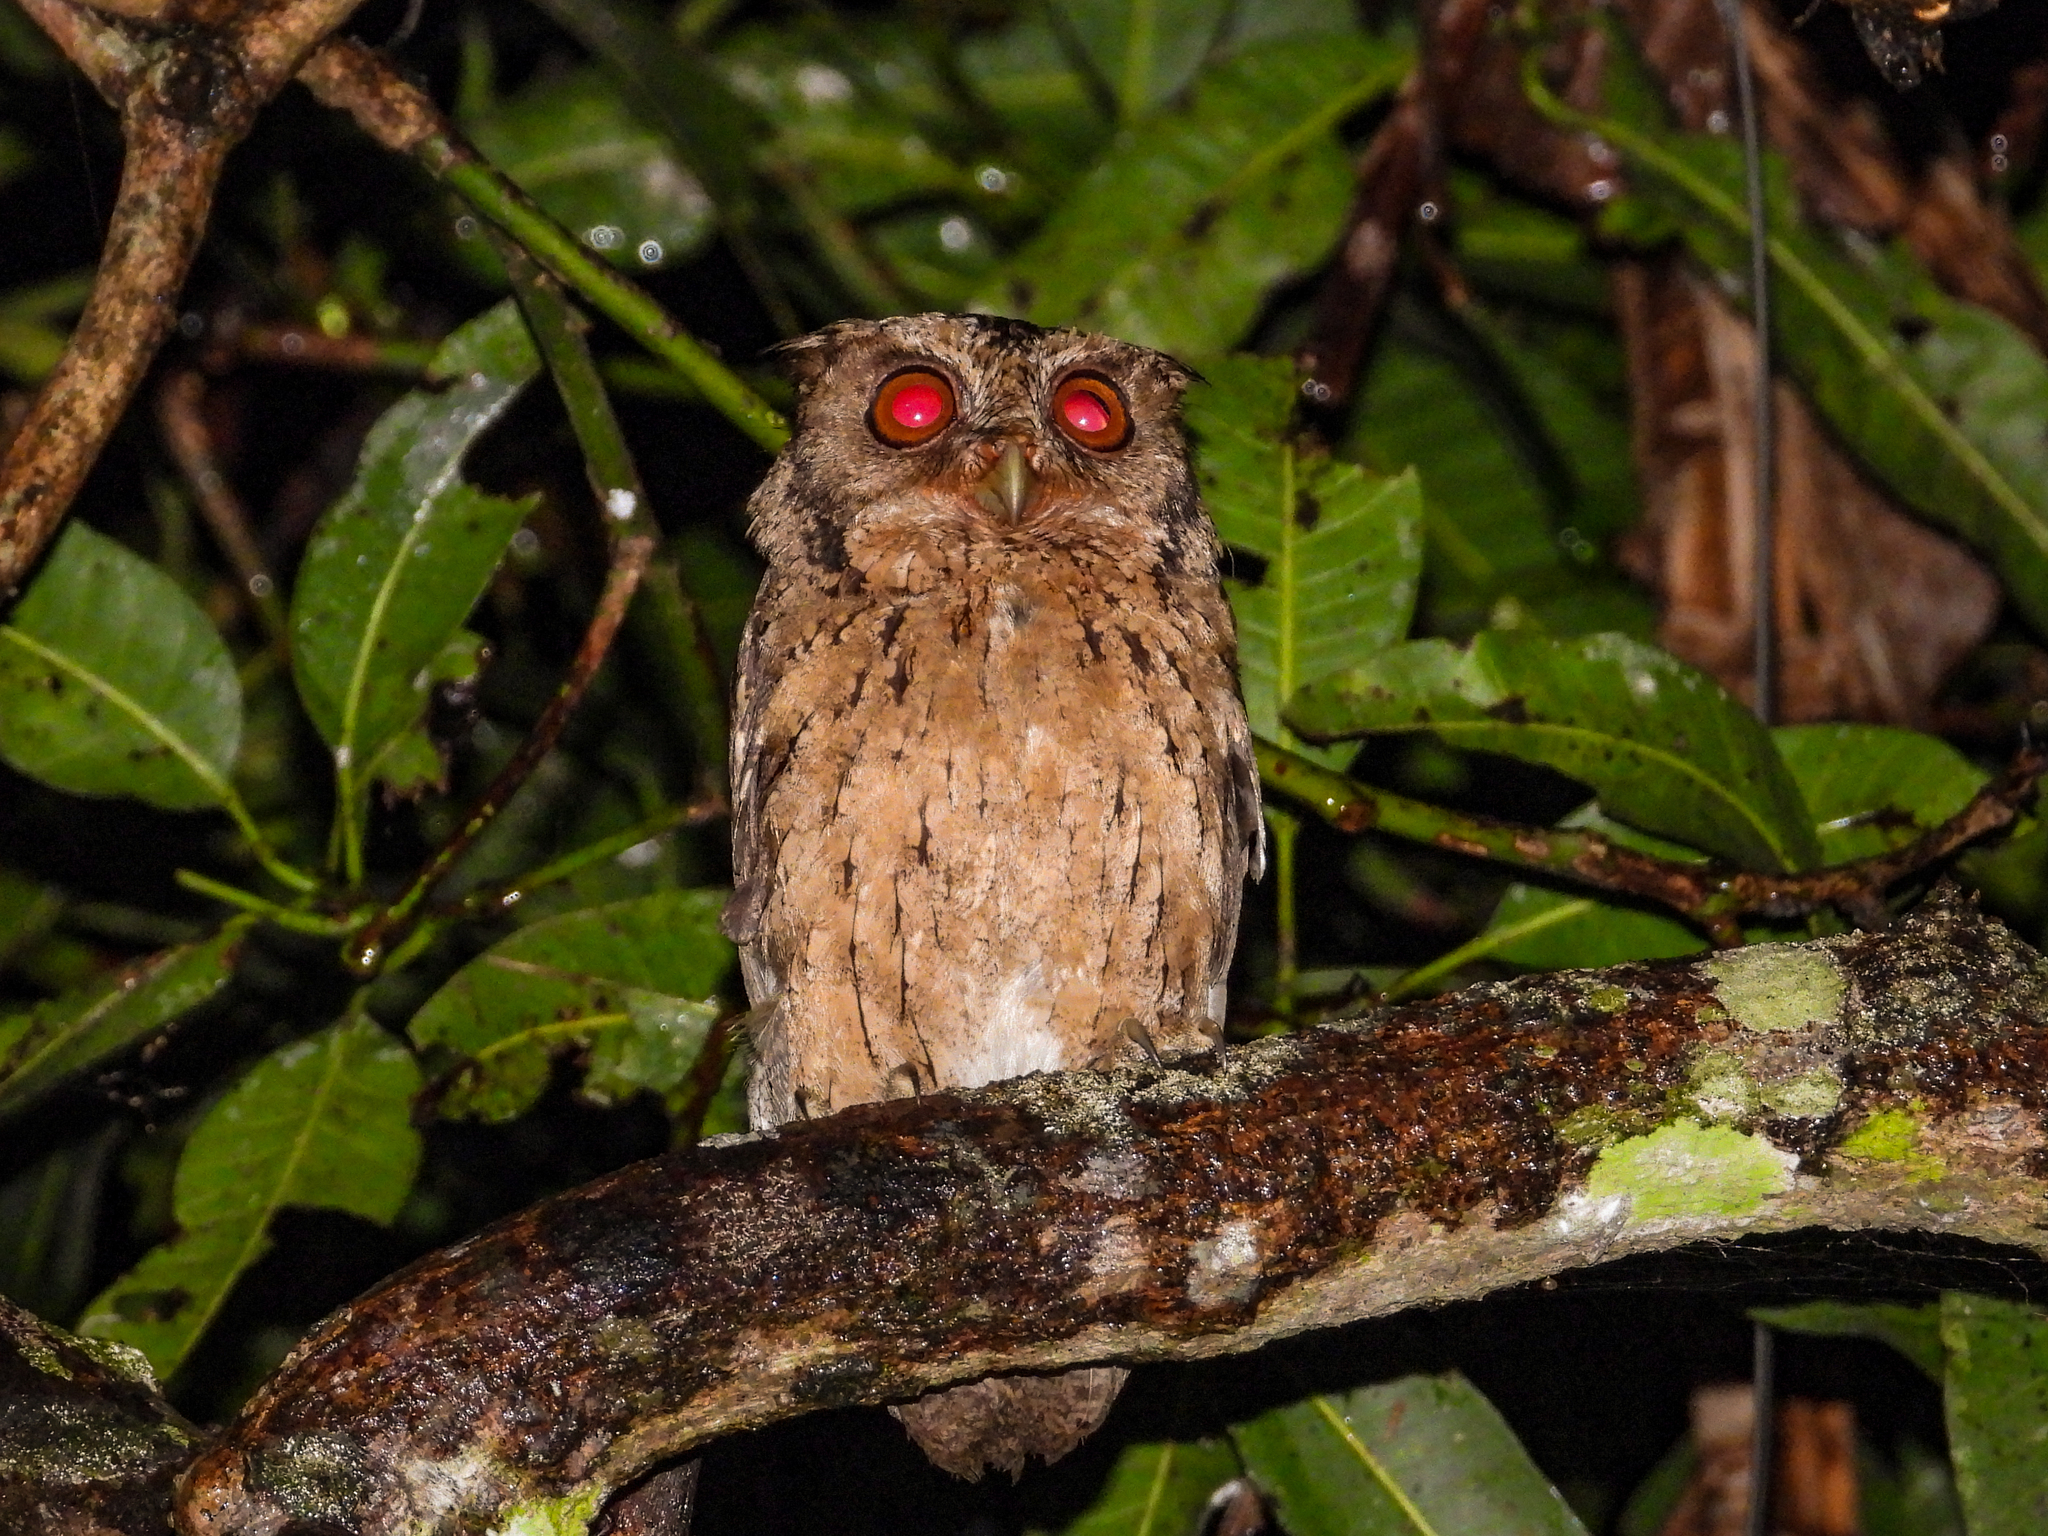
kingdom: Animalia
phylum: Chordata
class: Aves
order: Strigiformes
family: Strigidae
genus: Otus
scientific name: Otus lempiji
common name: Sunda scops-owl
